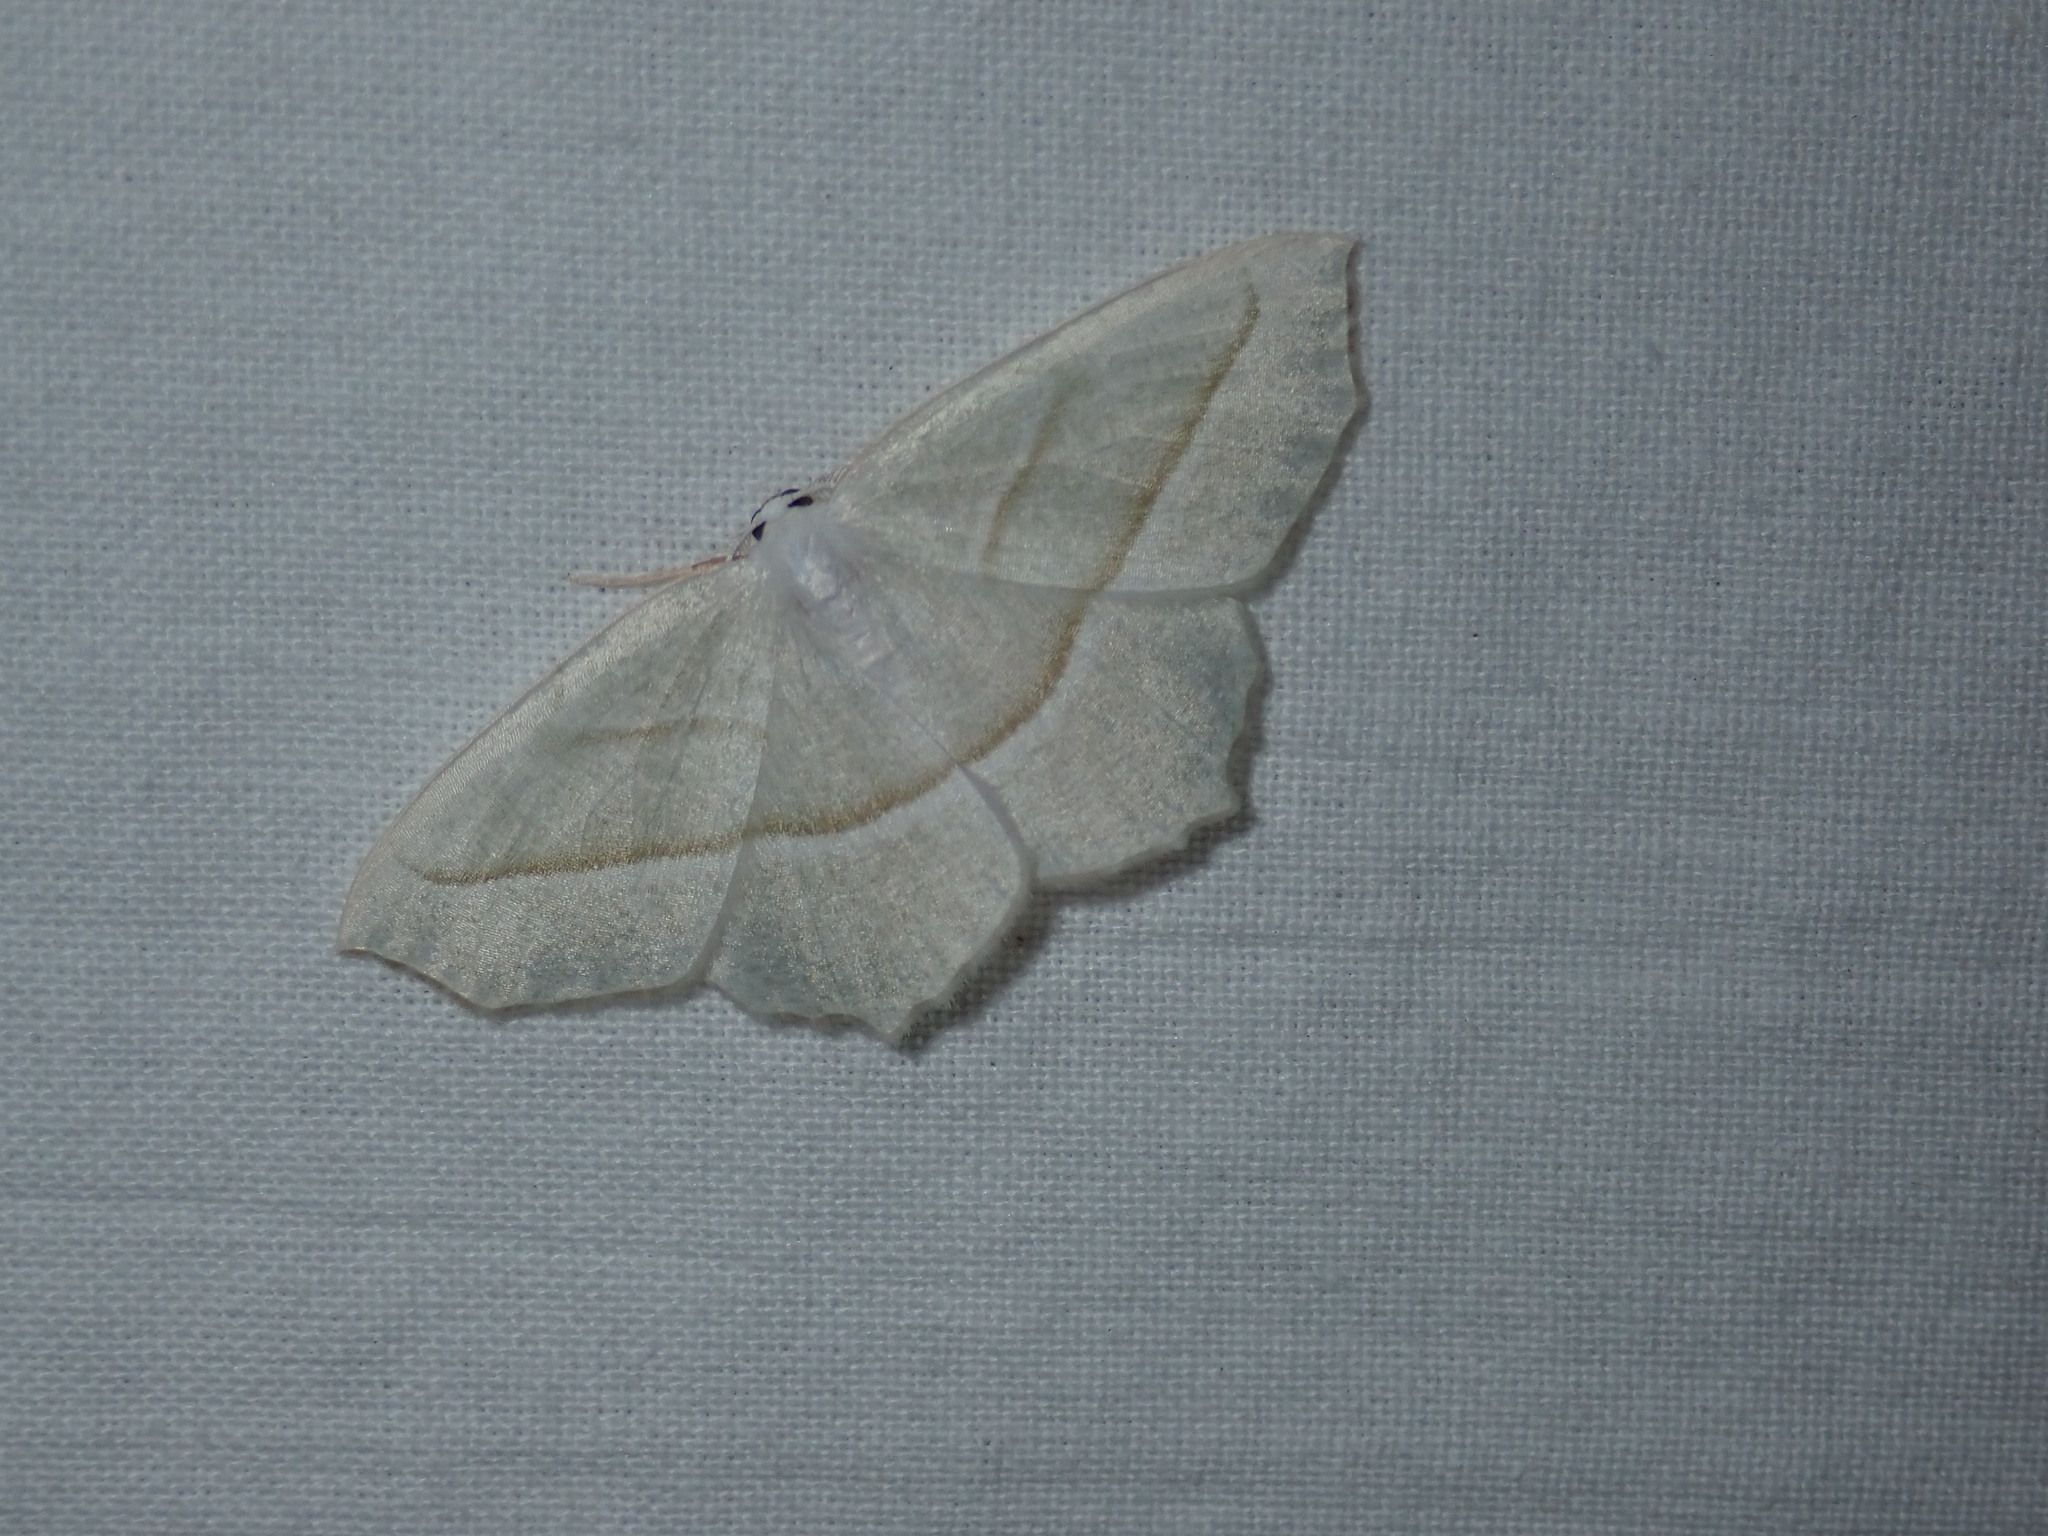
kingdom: Animalia
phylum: Arthropoda
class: Insecta
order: Lepidoptera
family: Geometridae
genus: Campaea
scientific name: Campaea perlata
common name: Fringed looper
